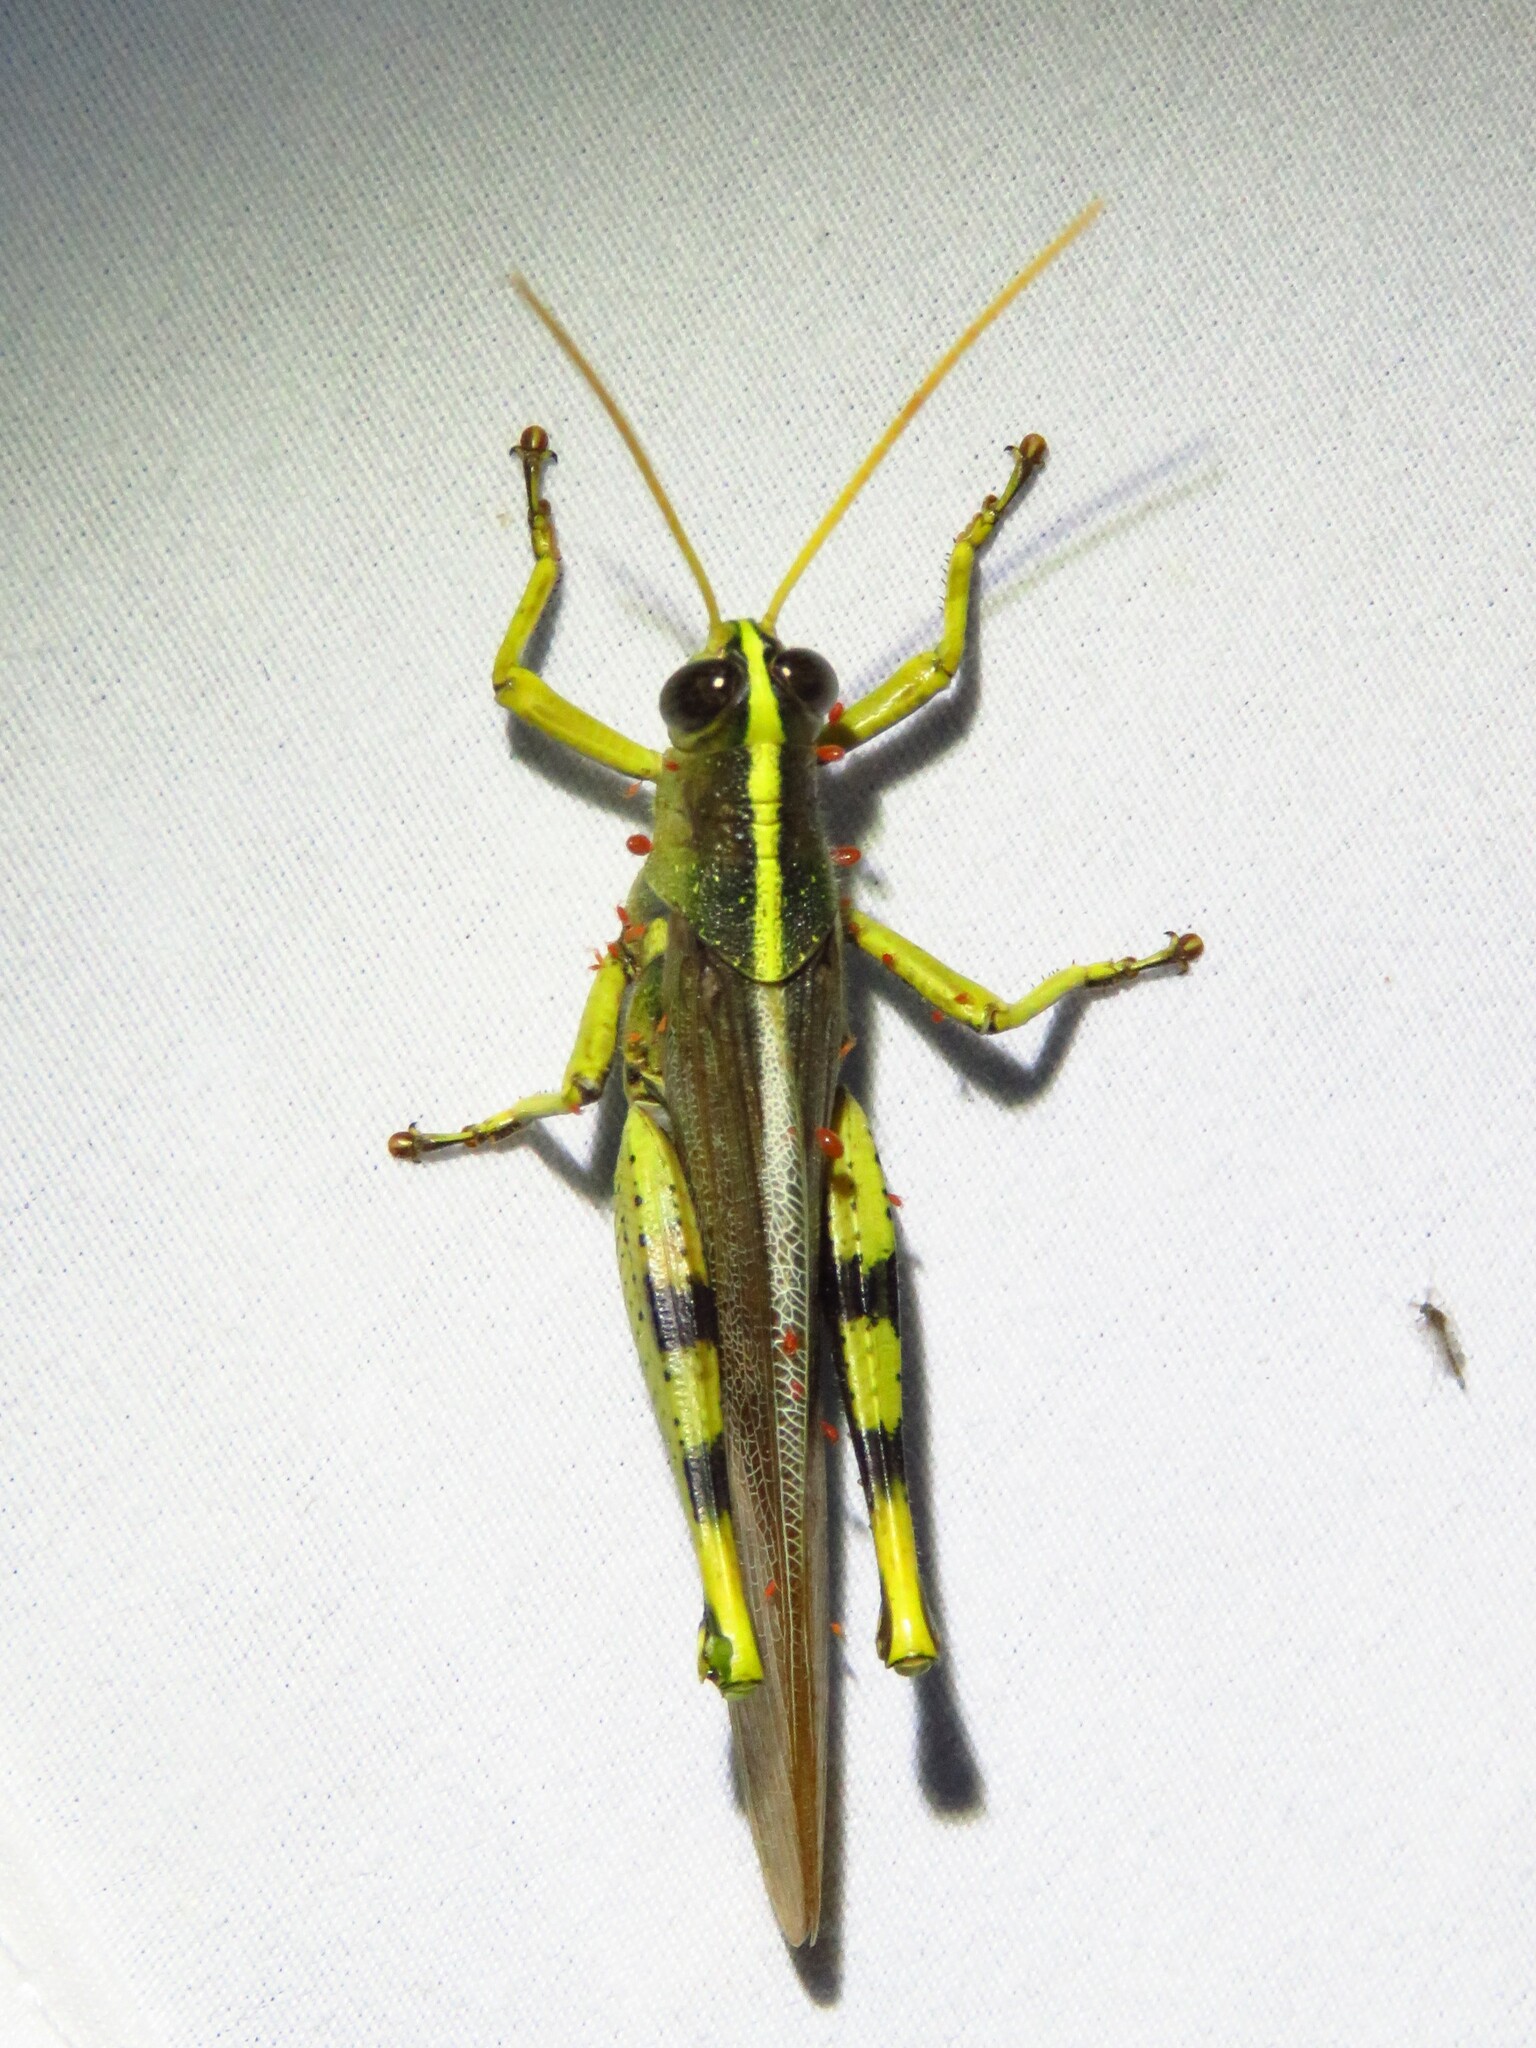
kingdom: Animalia
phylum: Arthropoda
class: Insecta
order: Orthoptera
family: Acrididae
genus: Schistocerca
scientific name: Schistocerca obscura
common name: Obscure bird grasshopper
